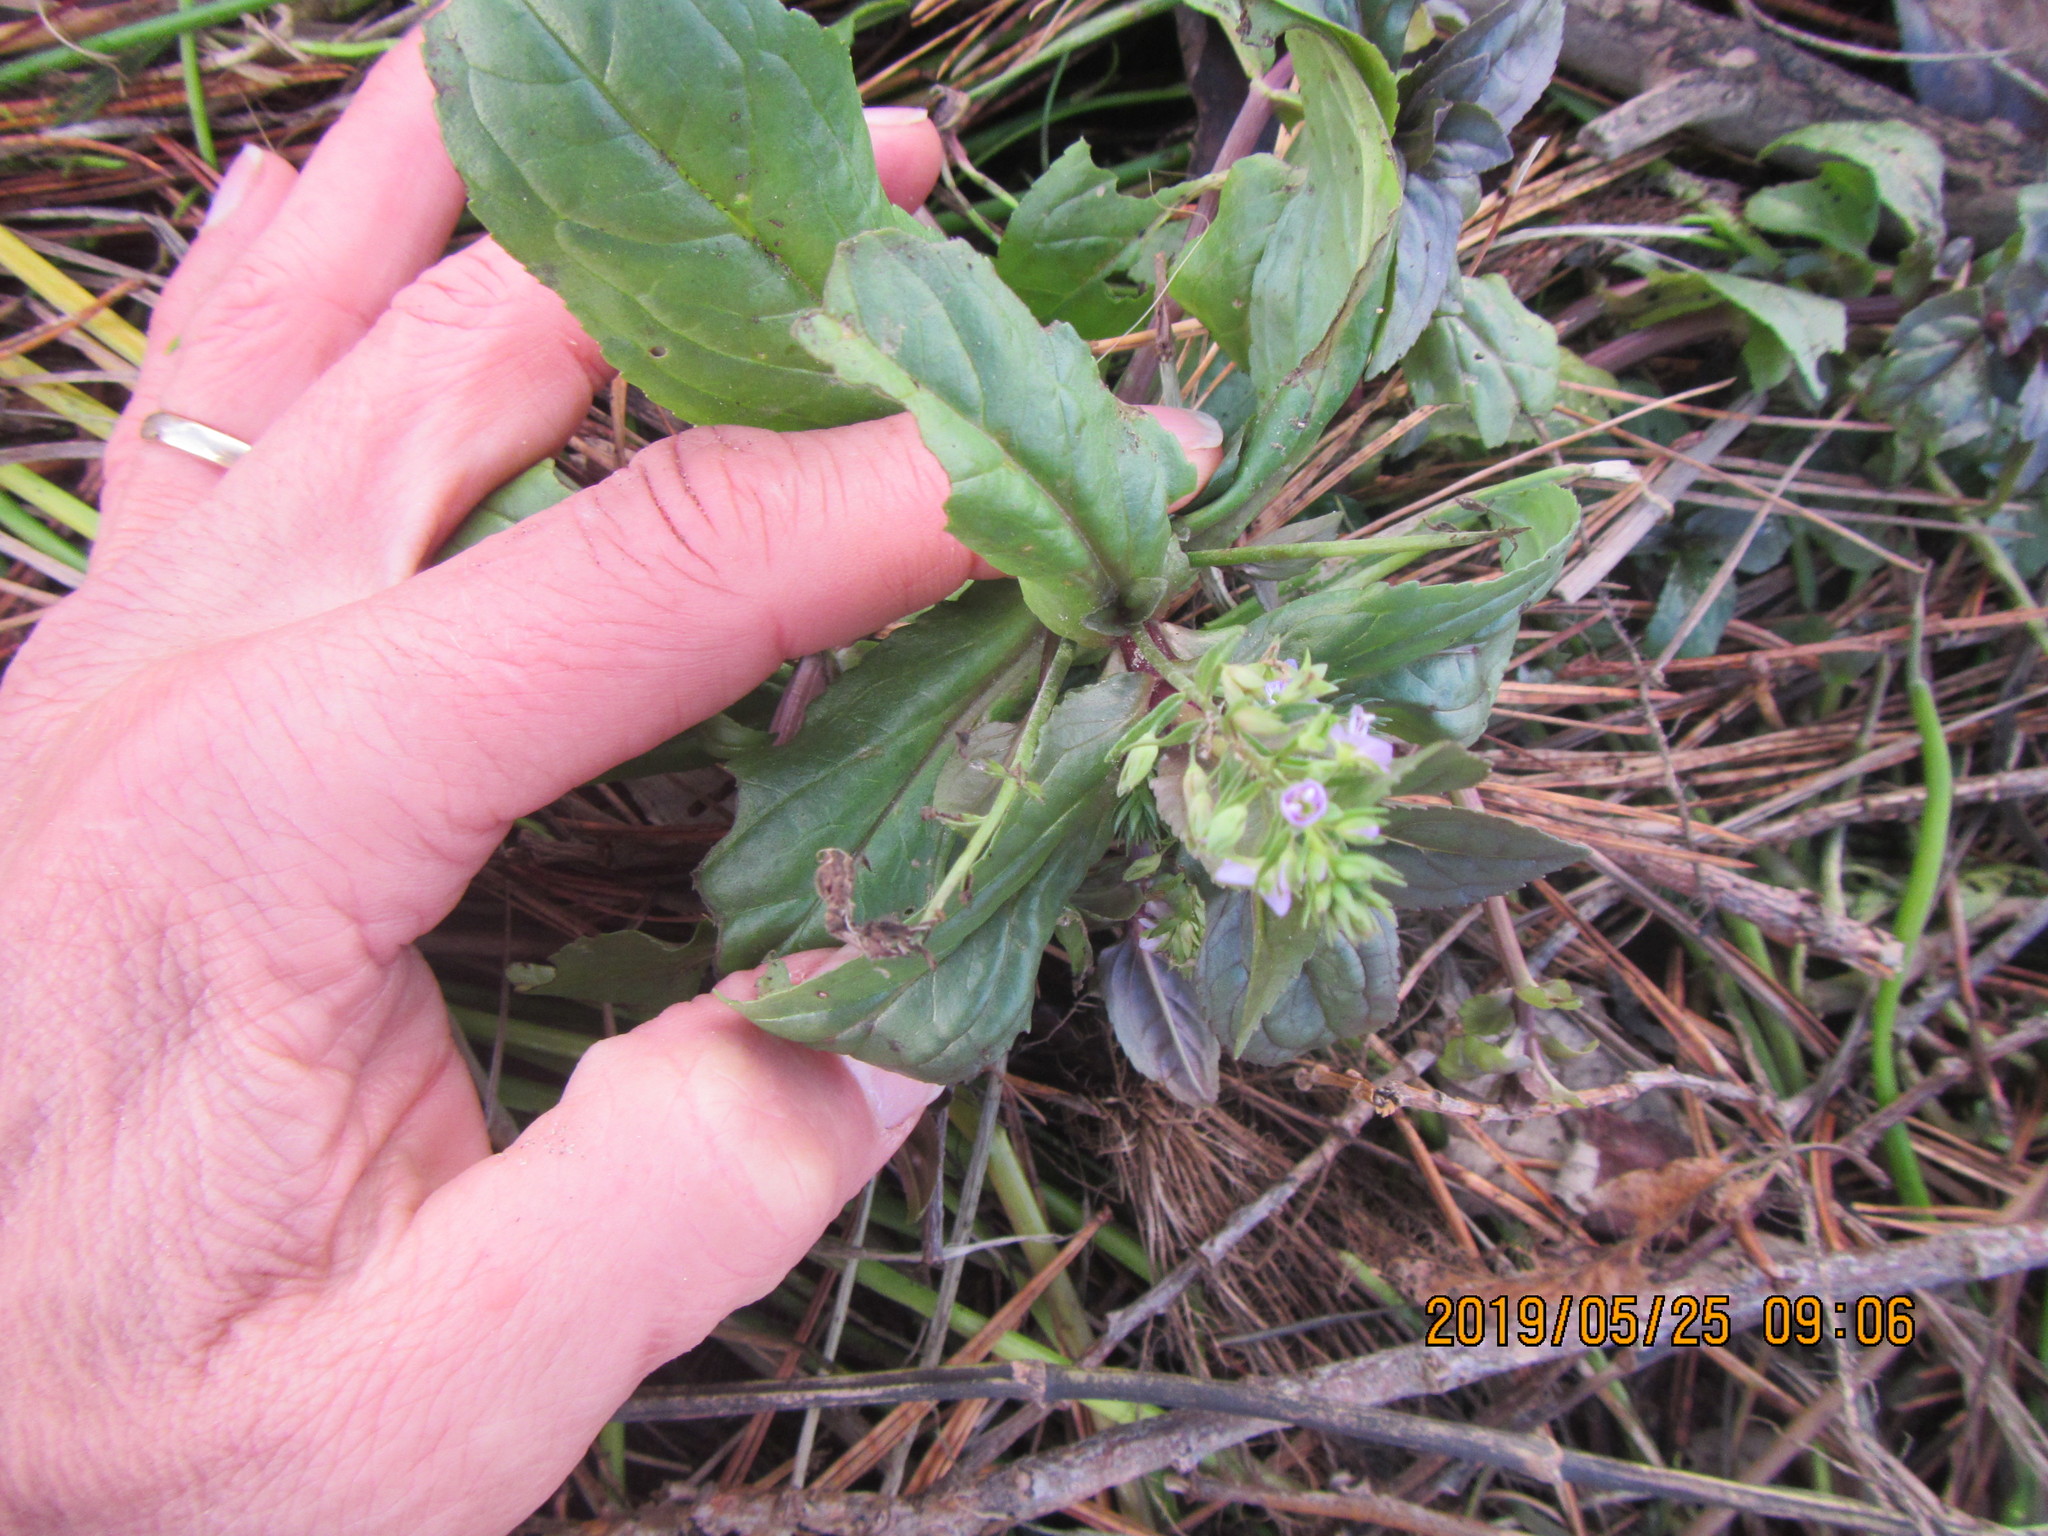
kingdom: Plantae
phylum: Tracheophyta
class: Magnoliopsida
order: Lamiales
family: Plantaginaceae
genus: Veronica
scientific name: Veronica anagallis-aquatica
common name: Water speedwell
